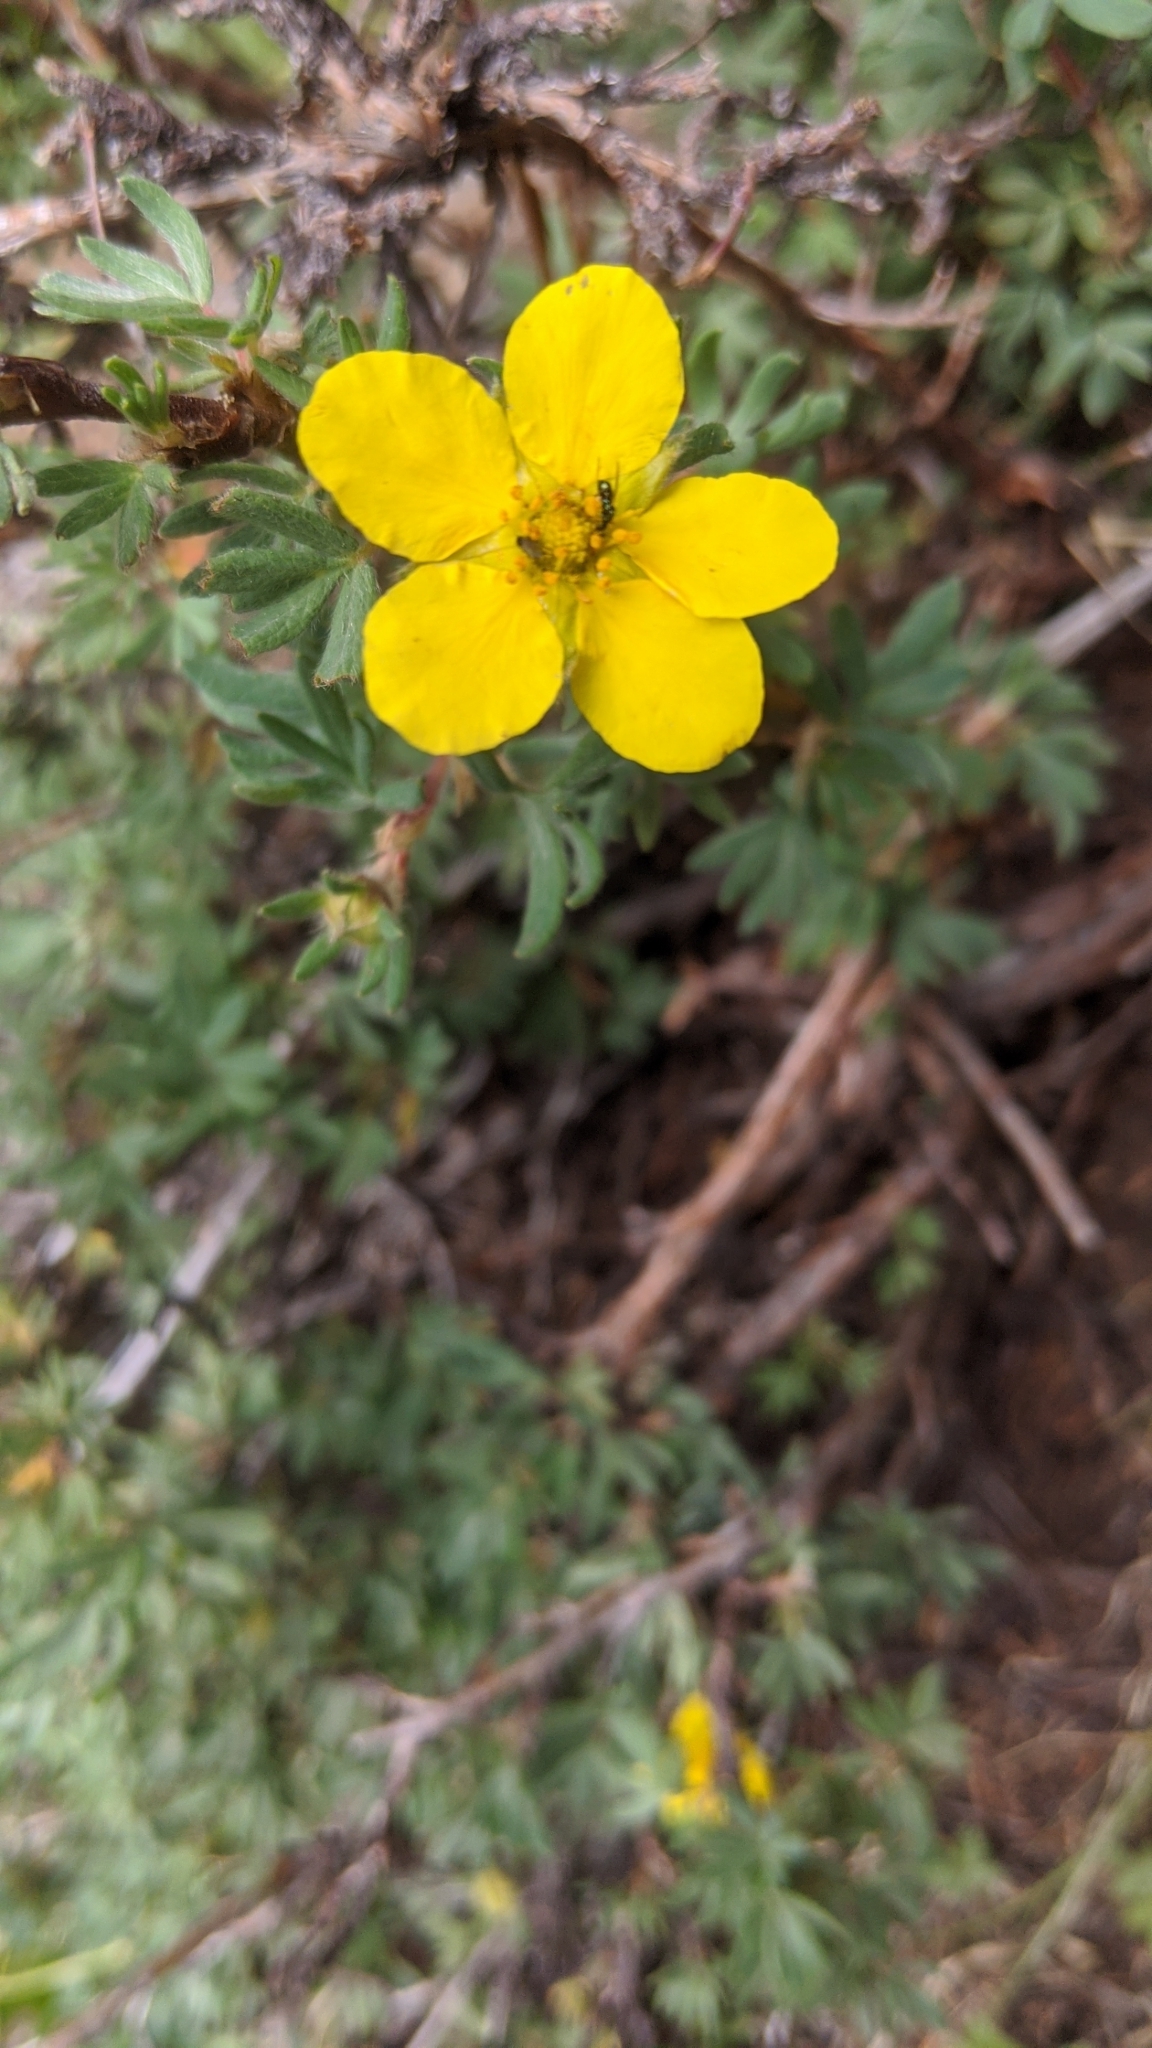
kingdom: Plantae
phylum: Tracheophyta
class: Magnoliopsida
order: Rosales
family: Rosaceae
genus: Dasiphora
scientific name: Dasiphora fruticosa
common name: Shrubby cinquefoil
